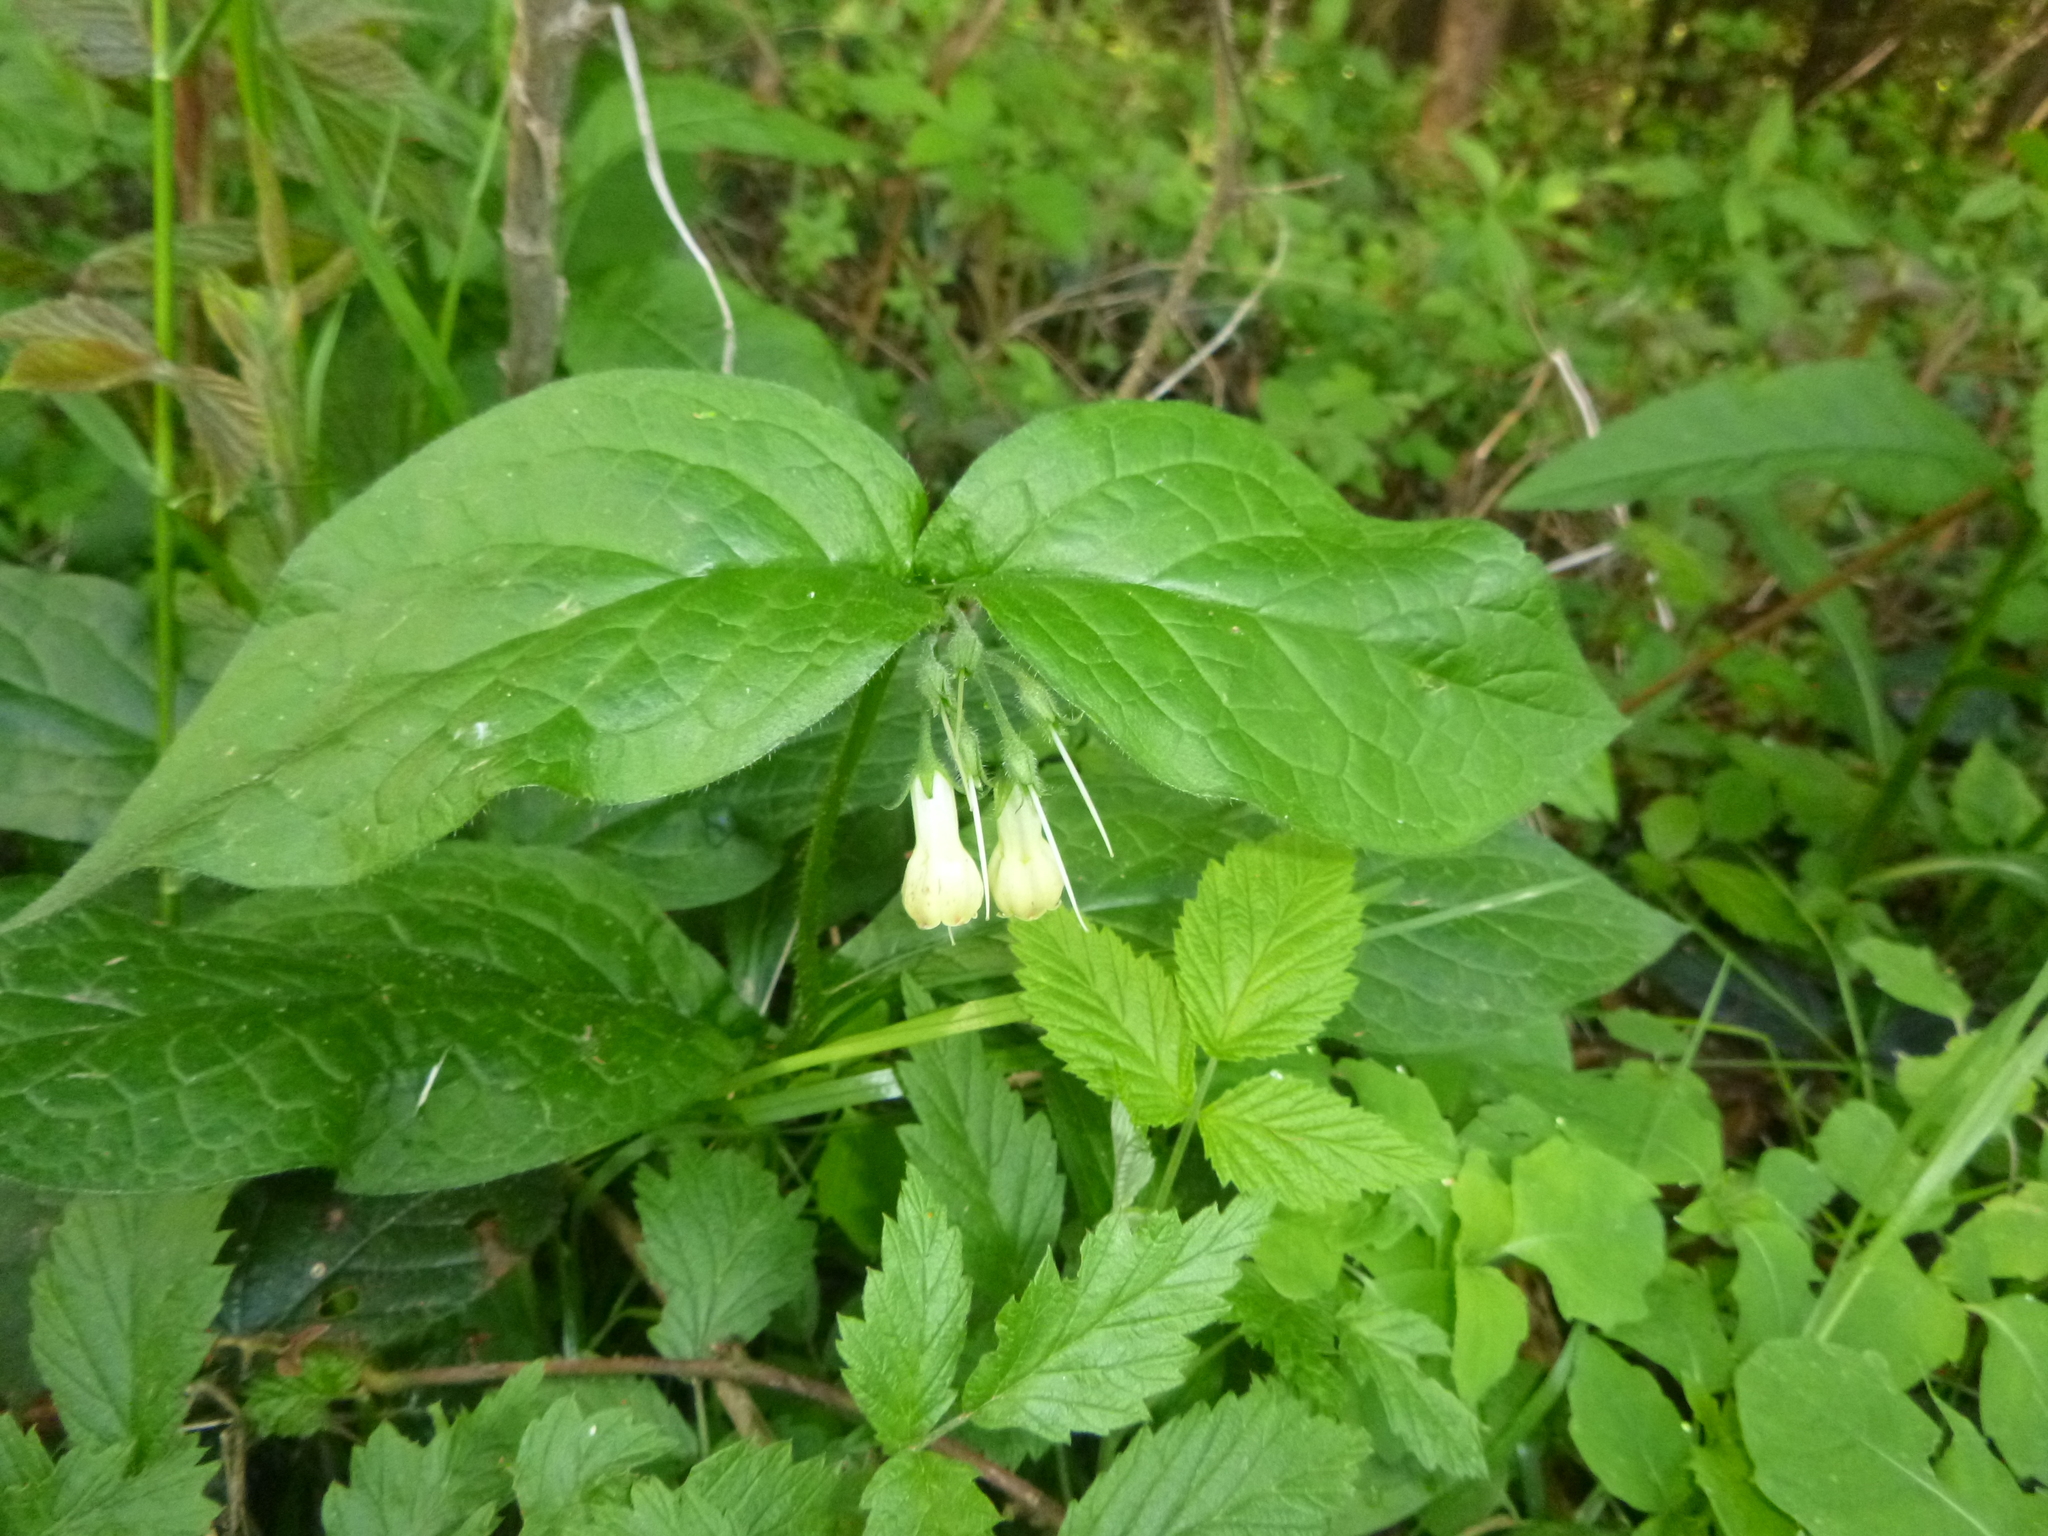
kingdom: Plantae
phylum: Tracheophyta
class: Magnoliopsida
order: Boraginales
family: Boraginaceae
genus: Symphytum
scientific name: Symphytum tuberosum
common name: Tuberous comfrey
